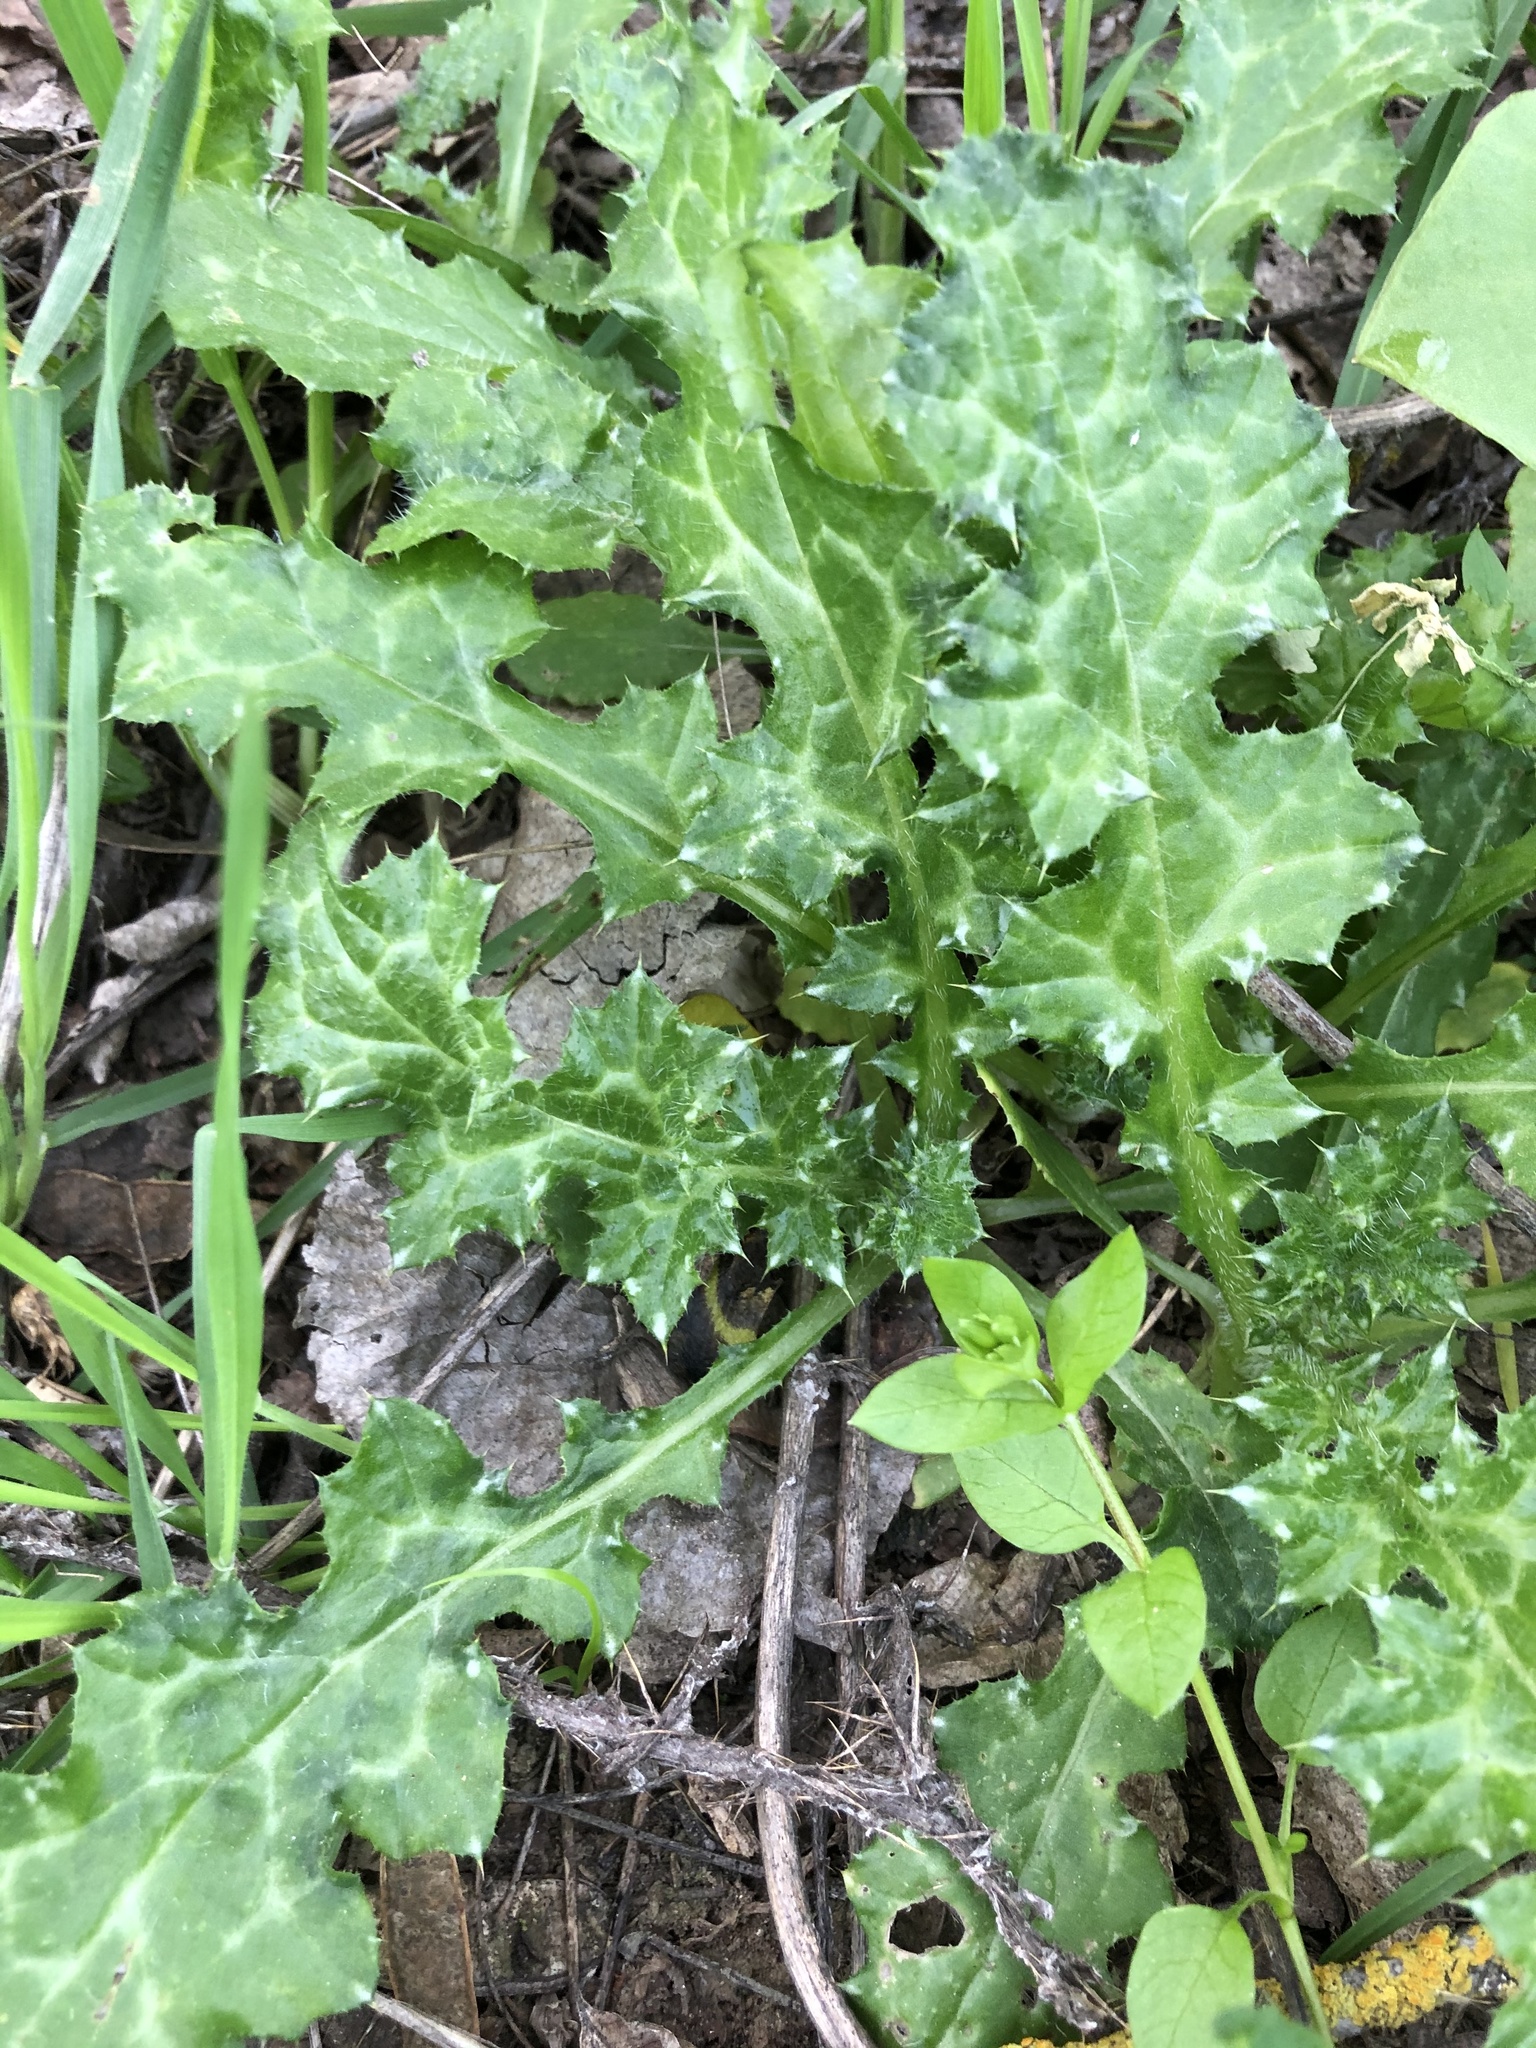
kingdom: Plantae
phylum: Tracheophyta
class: Magnoliopsida
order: Asterales
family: Asteraceae
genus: Carduus
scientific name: Carduus pycnocephalus
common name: Plymouth thistle
